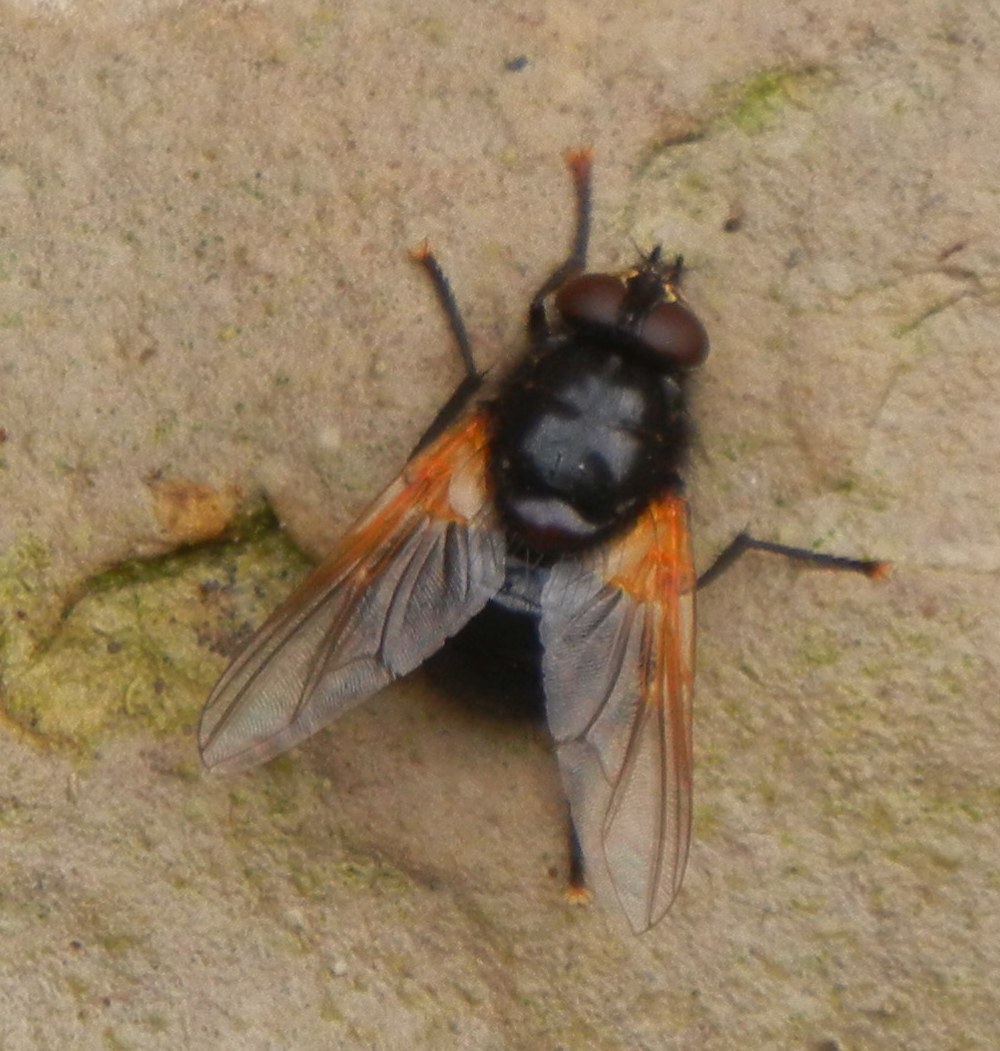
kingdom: Animalia
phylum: Arthropoda
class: Insecta
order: Diptera
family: Muscidae
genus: Mesembrina
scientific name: Mesembrina meridiana
